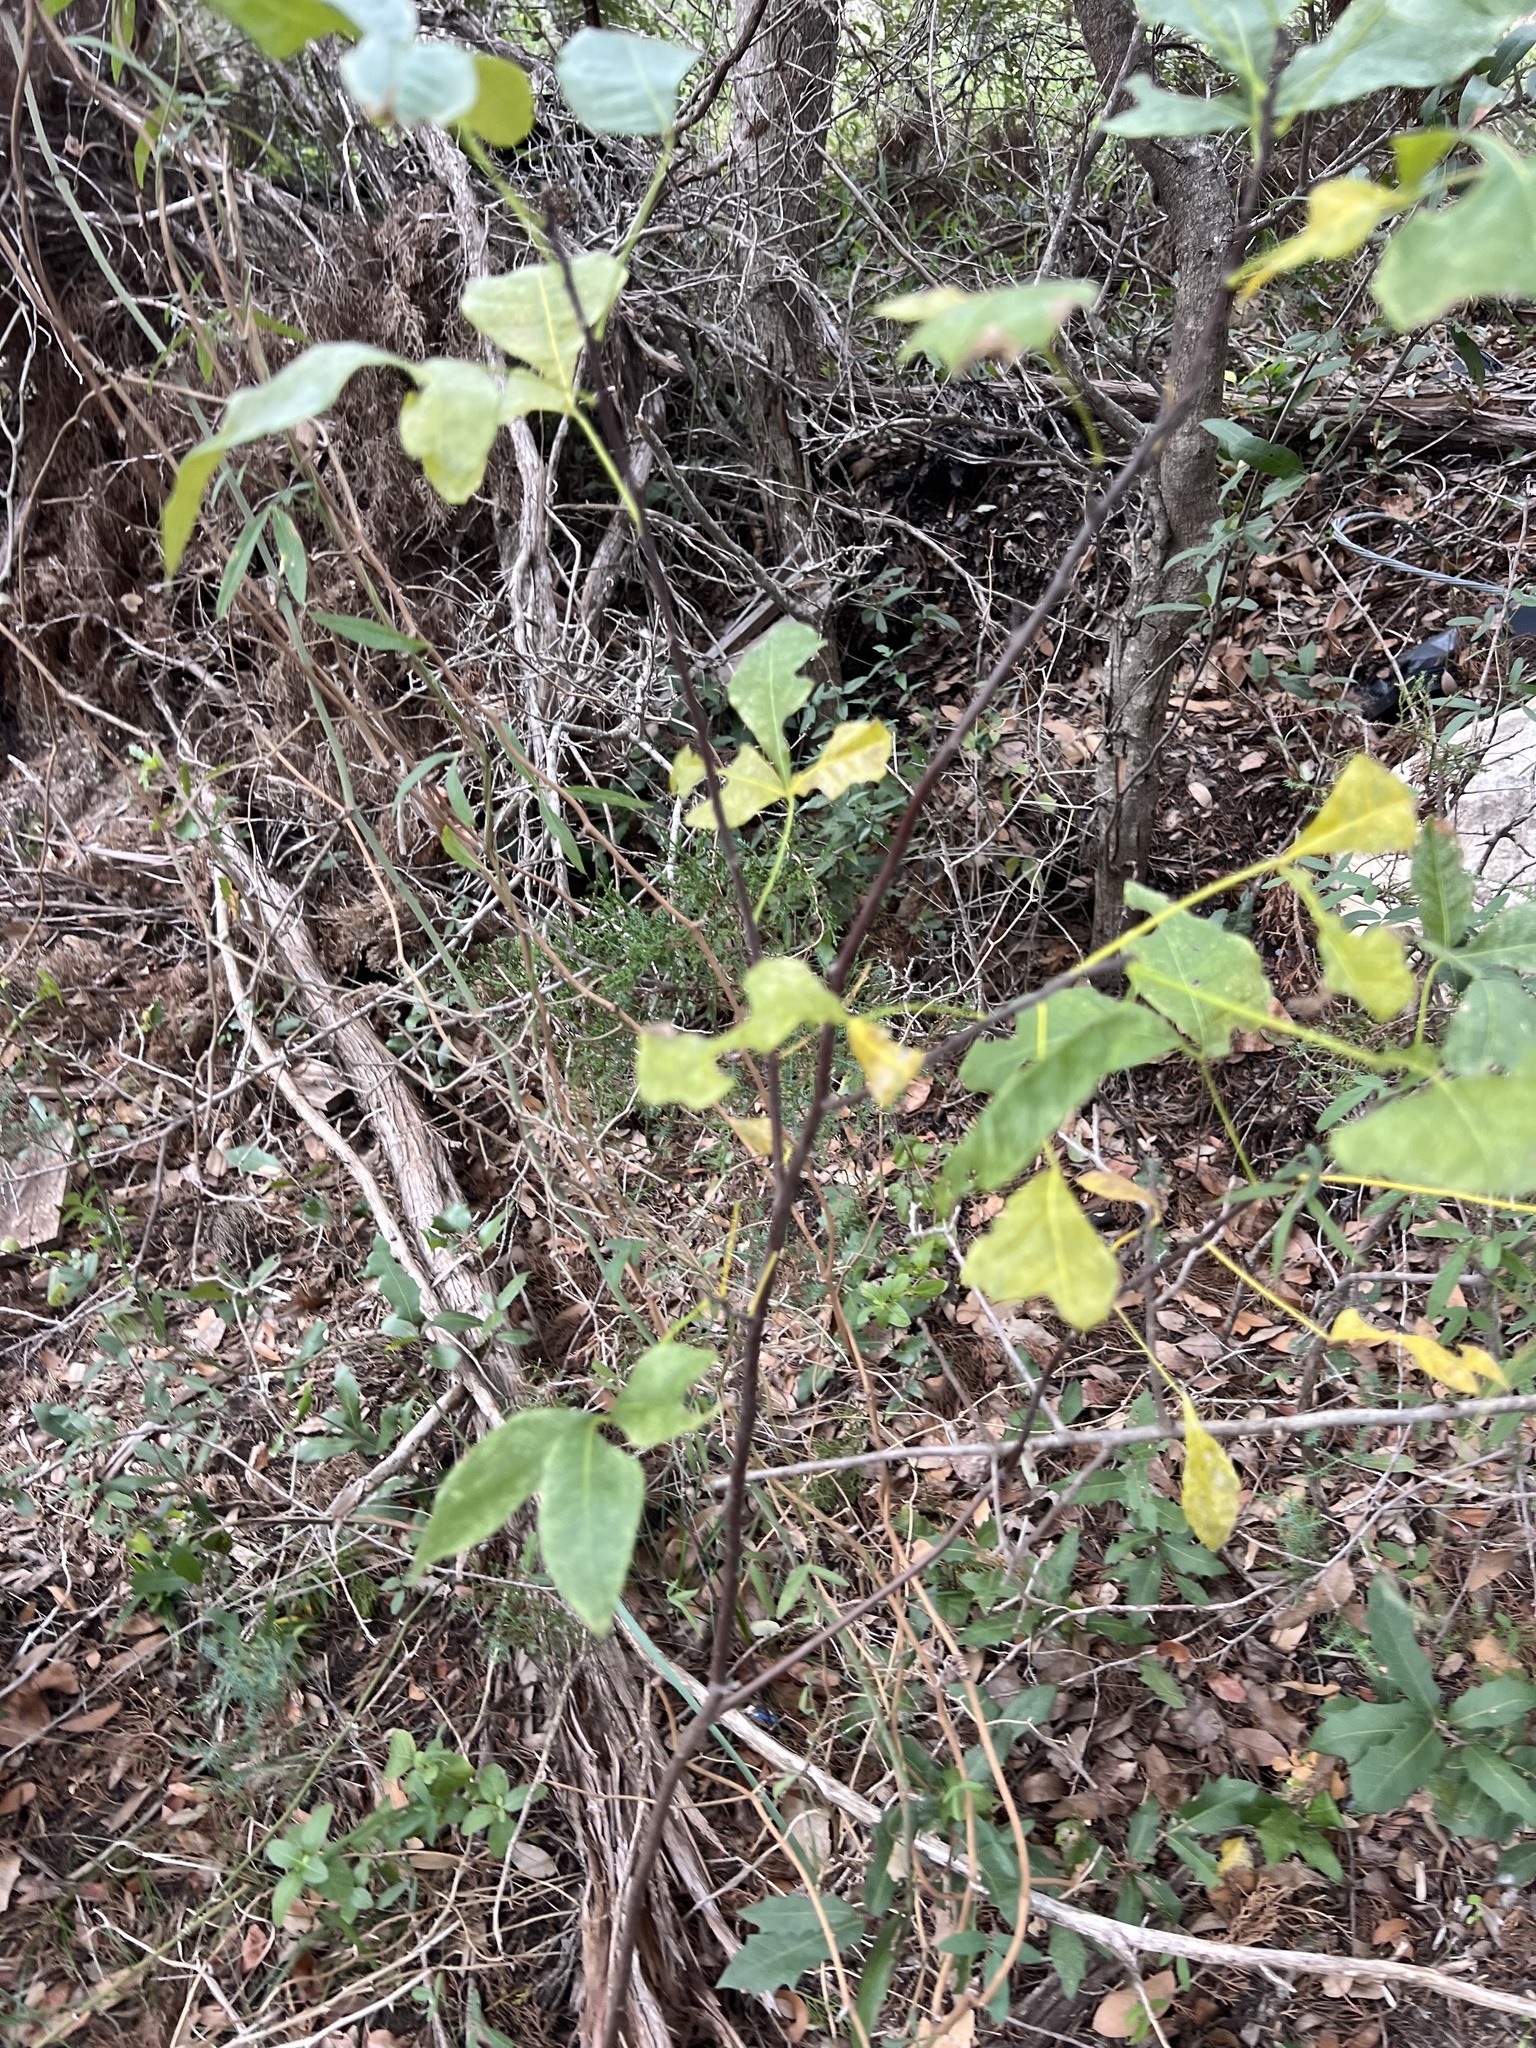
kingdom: Plantae
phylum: Tracheophyta
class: Magnoliopsida
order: Sapindales
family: Rutaceae
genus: Ptelea
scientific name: Ptelea trifoliata
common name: Common hop-tree
